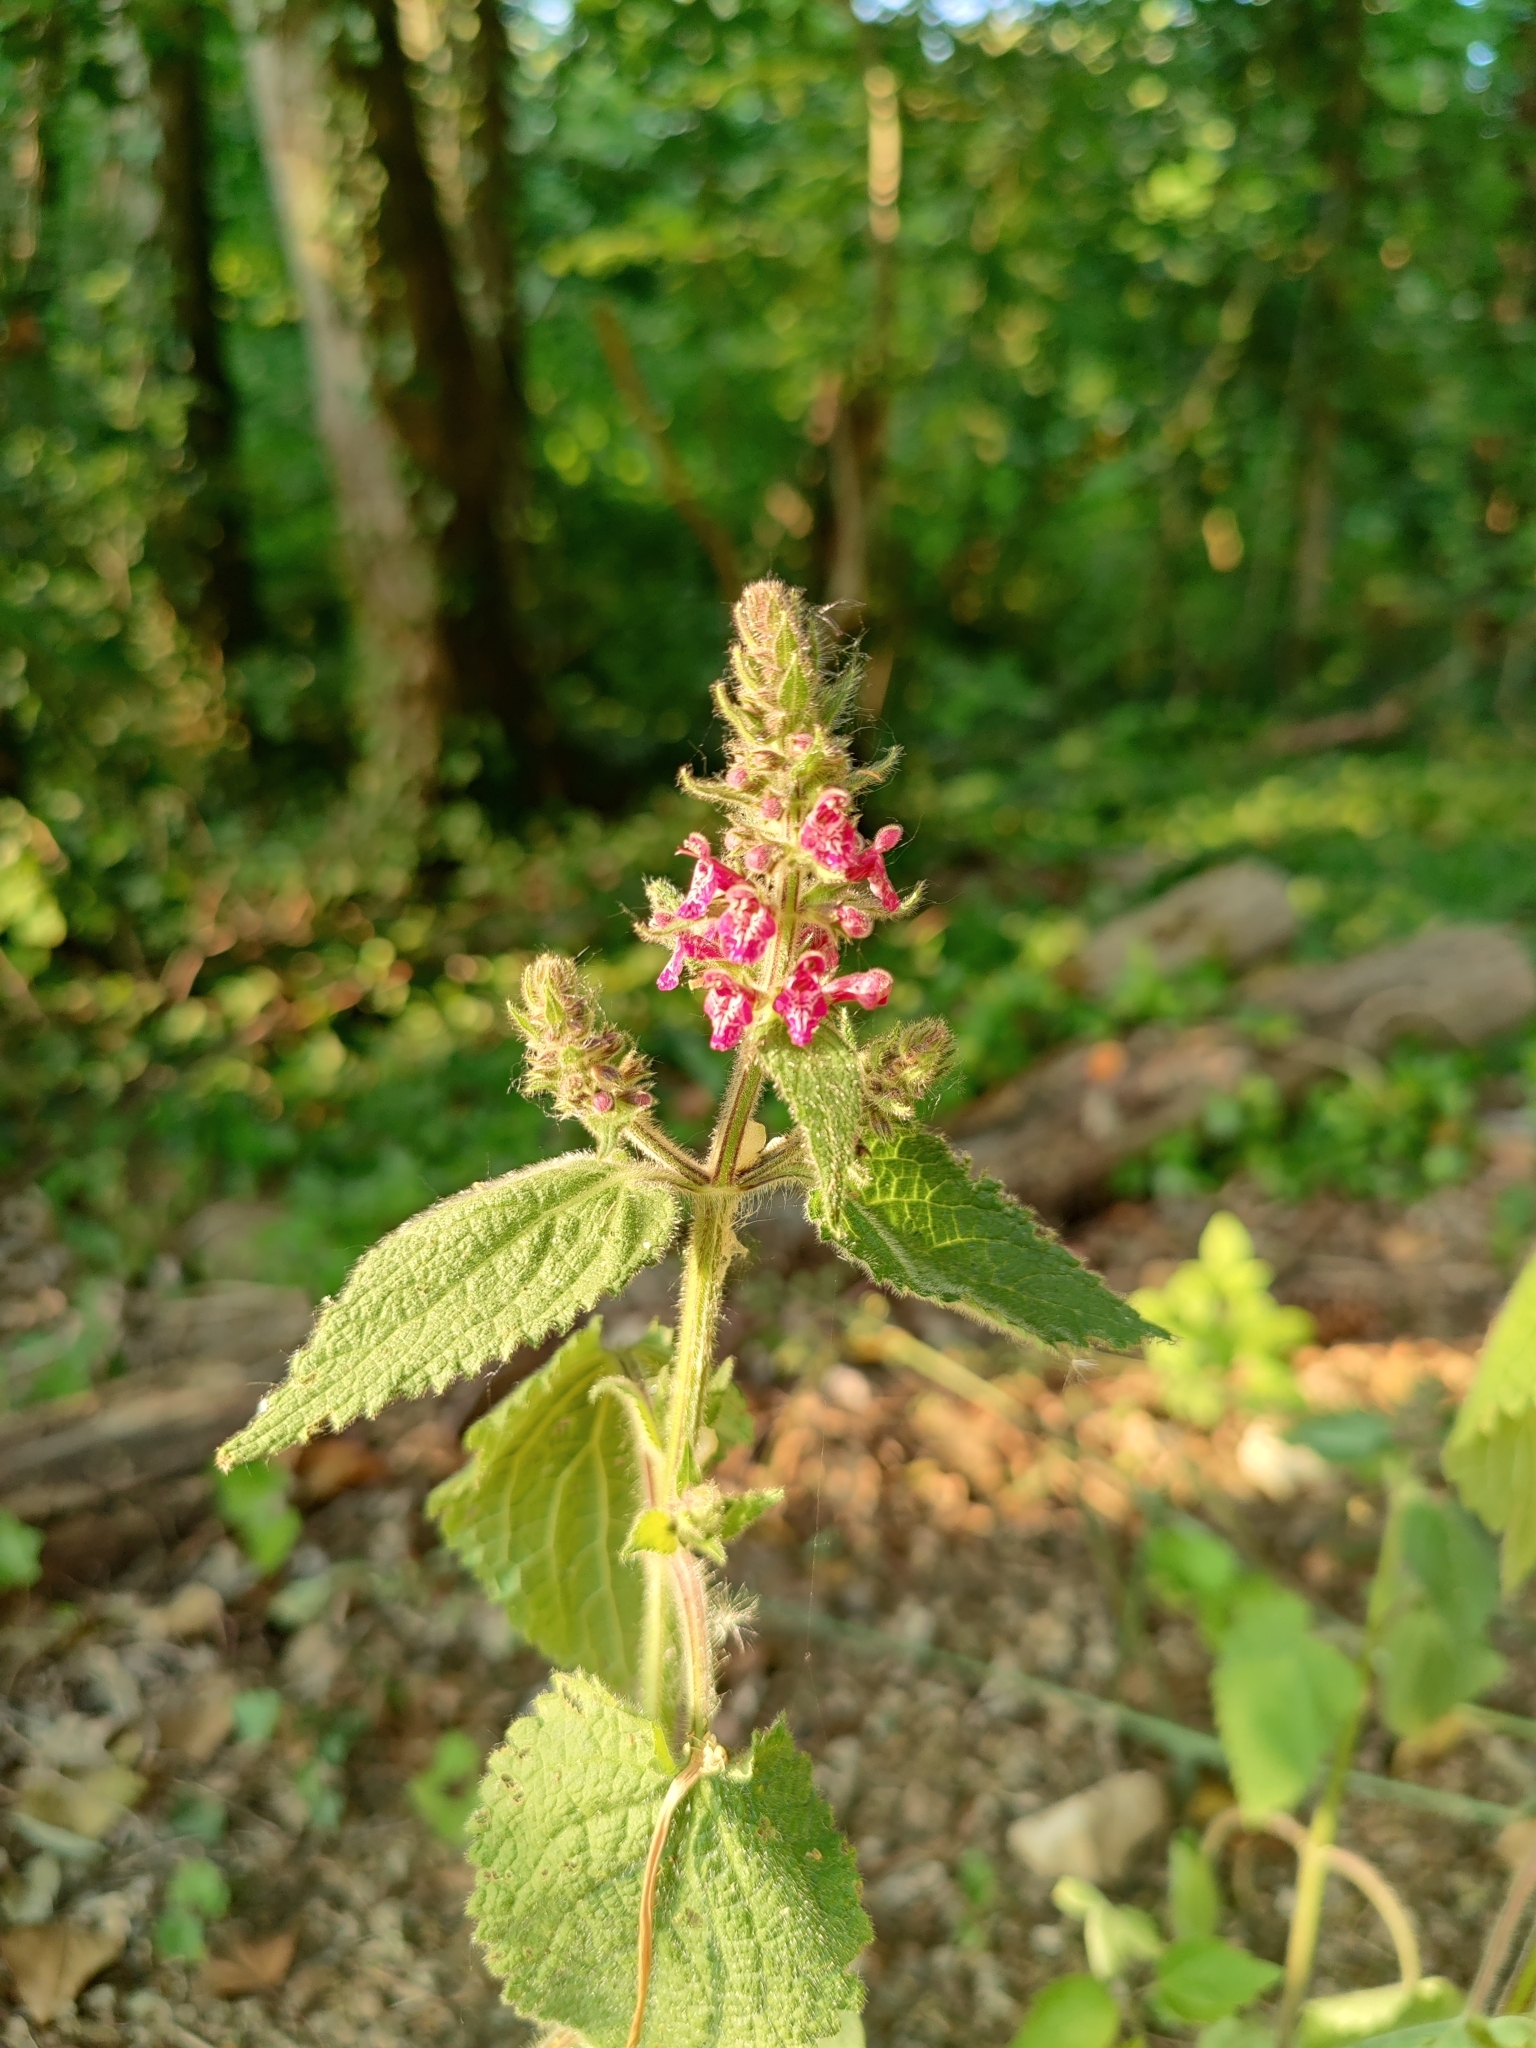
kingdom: Plantae
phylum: Tracheophyta
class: Magnoliopsida
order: Lamiales
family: Lamiaceae
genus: Stachys
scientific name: Stachys sylvatica
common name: Hedge woundwort
